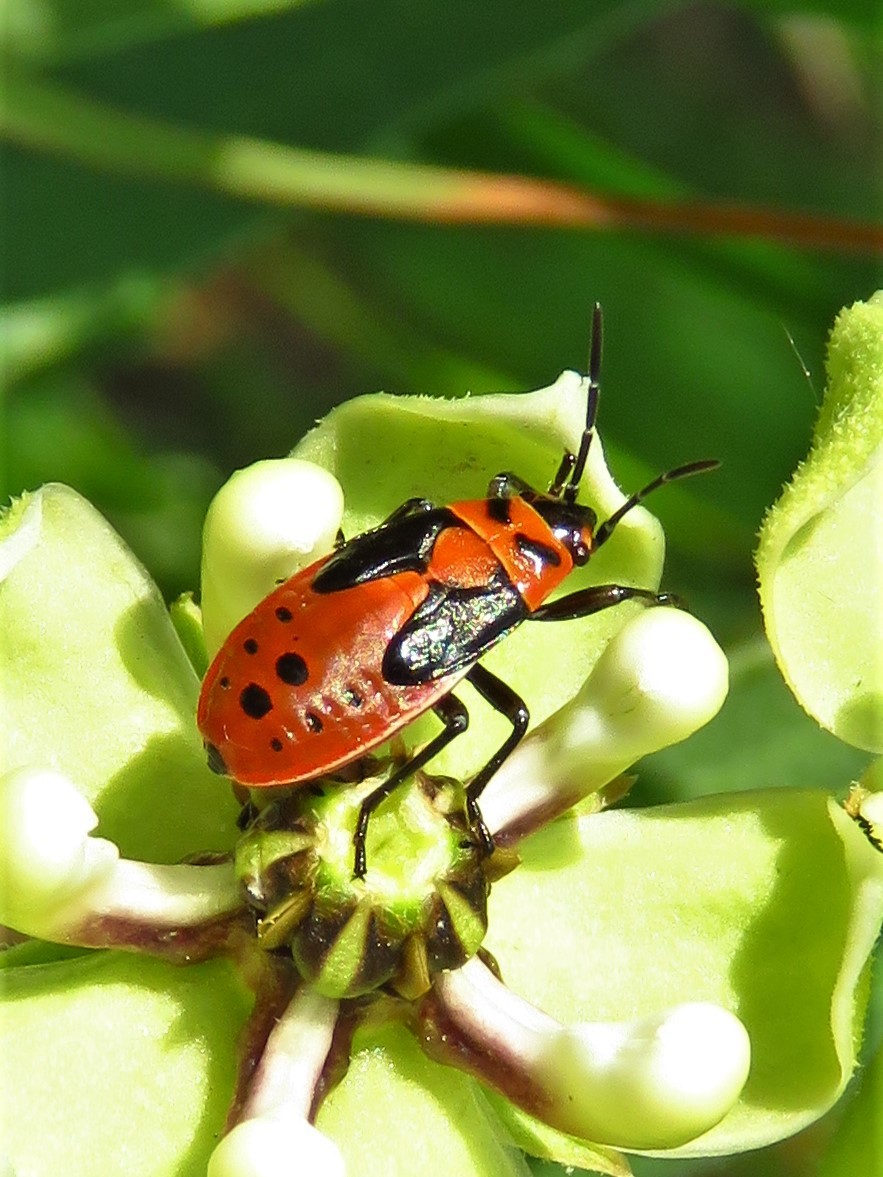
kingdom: Animalia
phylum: Arthropoda
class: Insecta
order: Hemiptera
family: Lygaeidae
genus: Lygaeus
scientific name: Lygaeus
